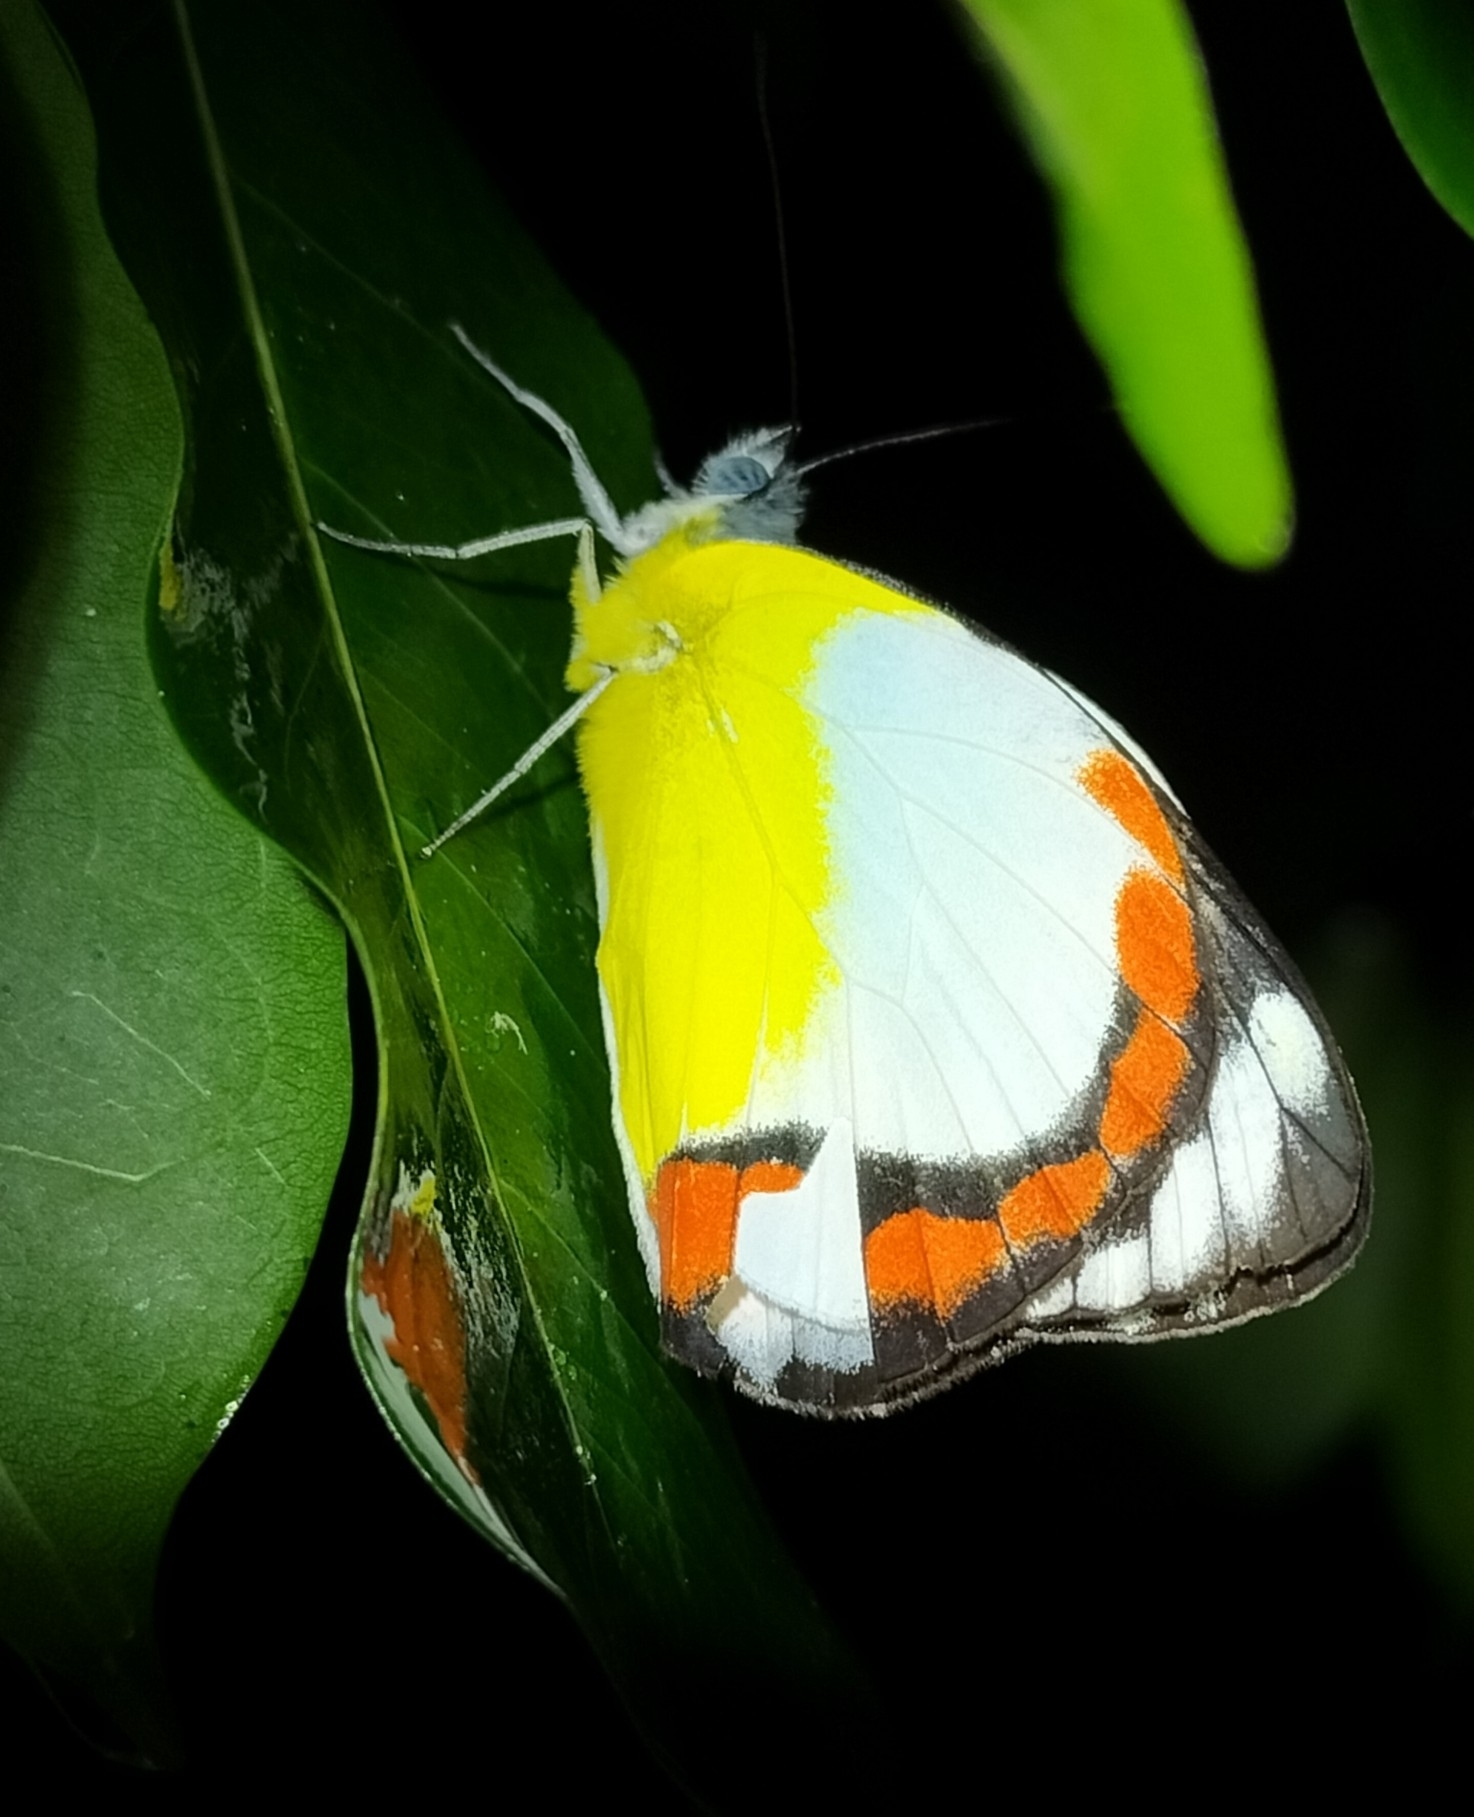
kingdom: Animalia
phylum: Arthropoda
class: Insecta
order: Lepidoptera
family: Pieridae
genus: Delias
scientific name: Delias mysis
